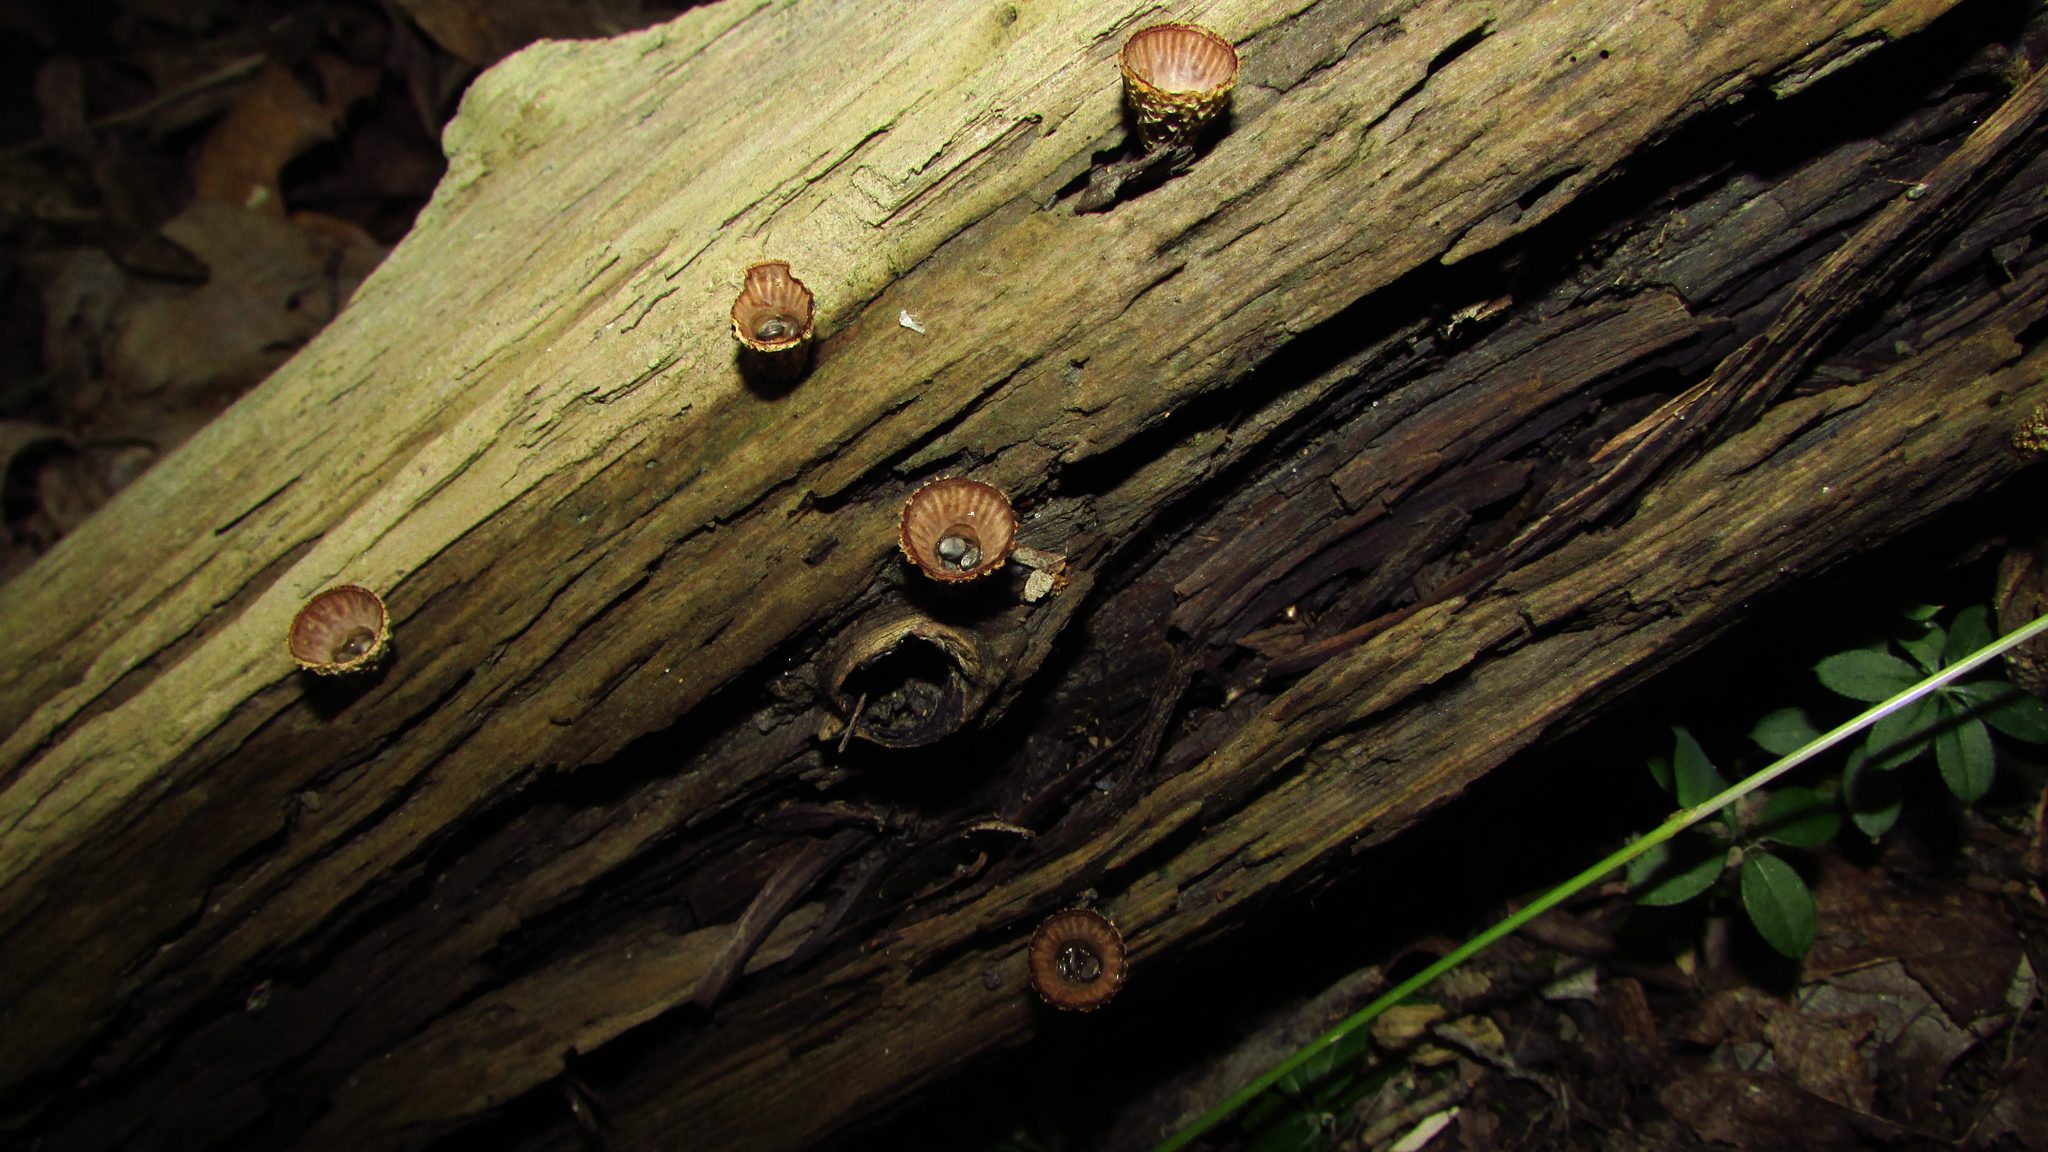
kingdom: Fungi
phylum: Basidiomycota
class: Agaricomycetes
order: Agaricales
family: Agaricaceae
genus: Cyathus
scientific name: Cyathus striatus
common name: Fluted bird's nest
